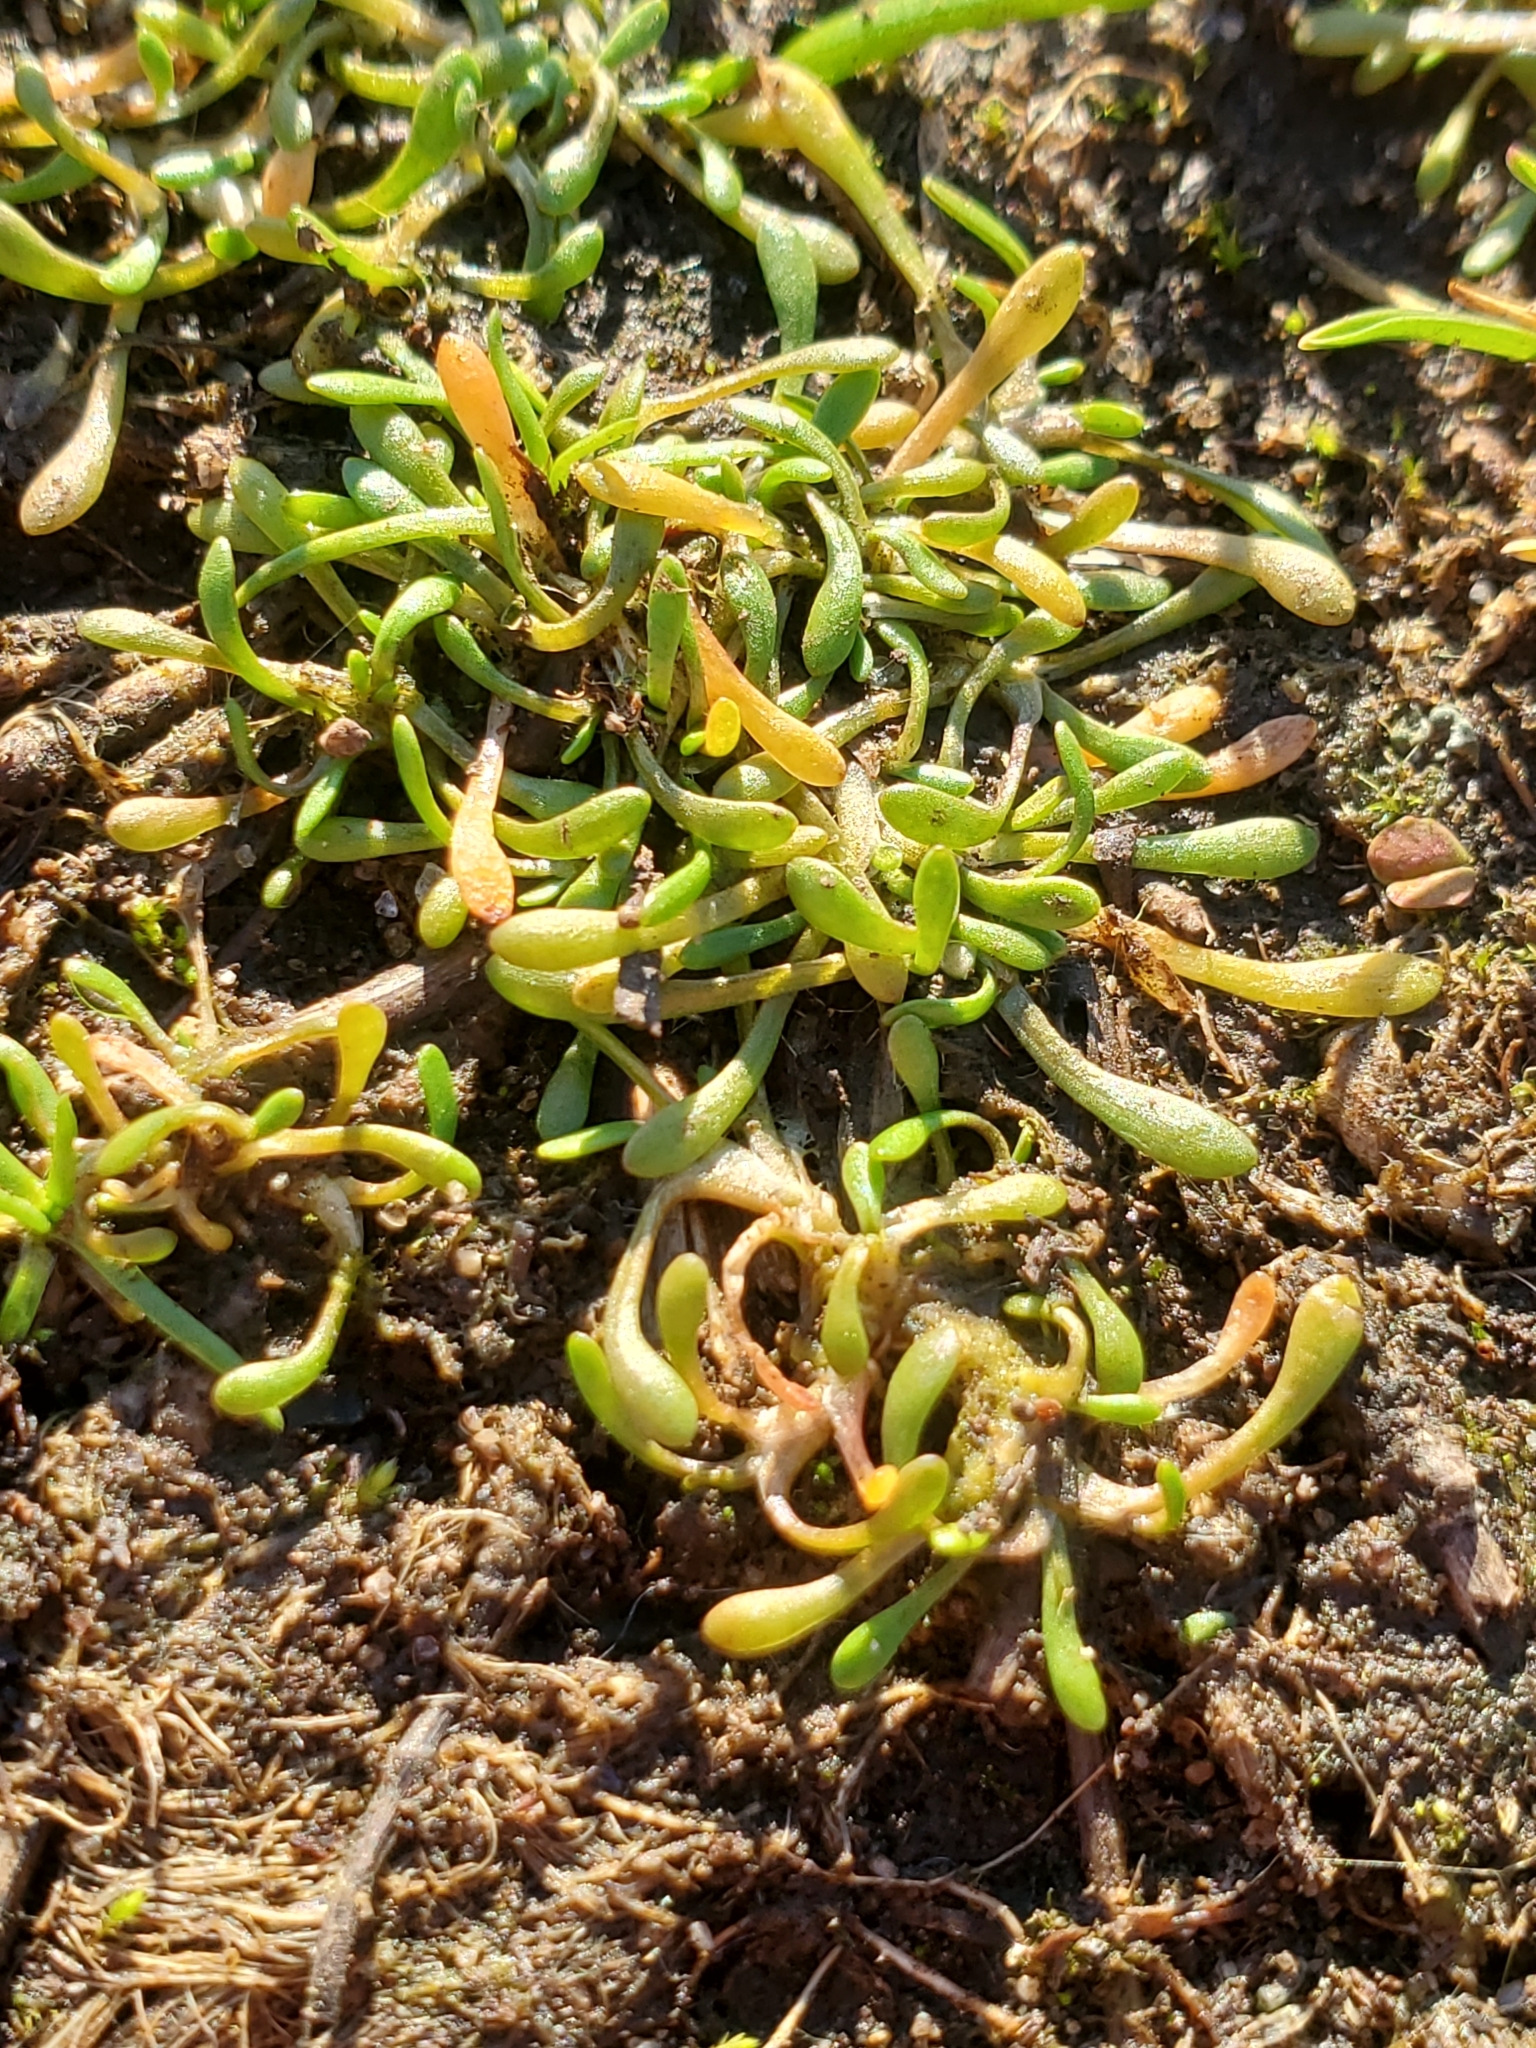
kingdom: Plantae
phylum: Tracheophyta
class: Magnoliopsida
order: Caryophyllales
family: Montiaceae
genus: Montia
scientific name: Montia howellii
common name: Howell's miner's-lettuce
